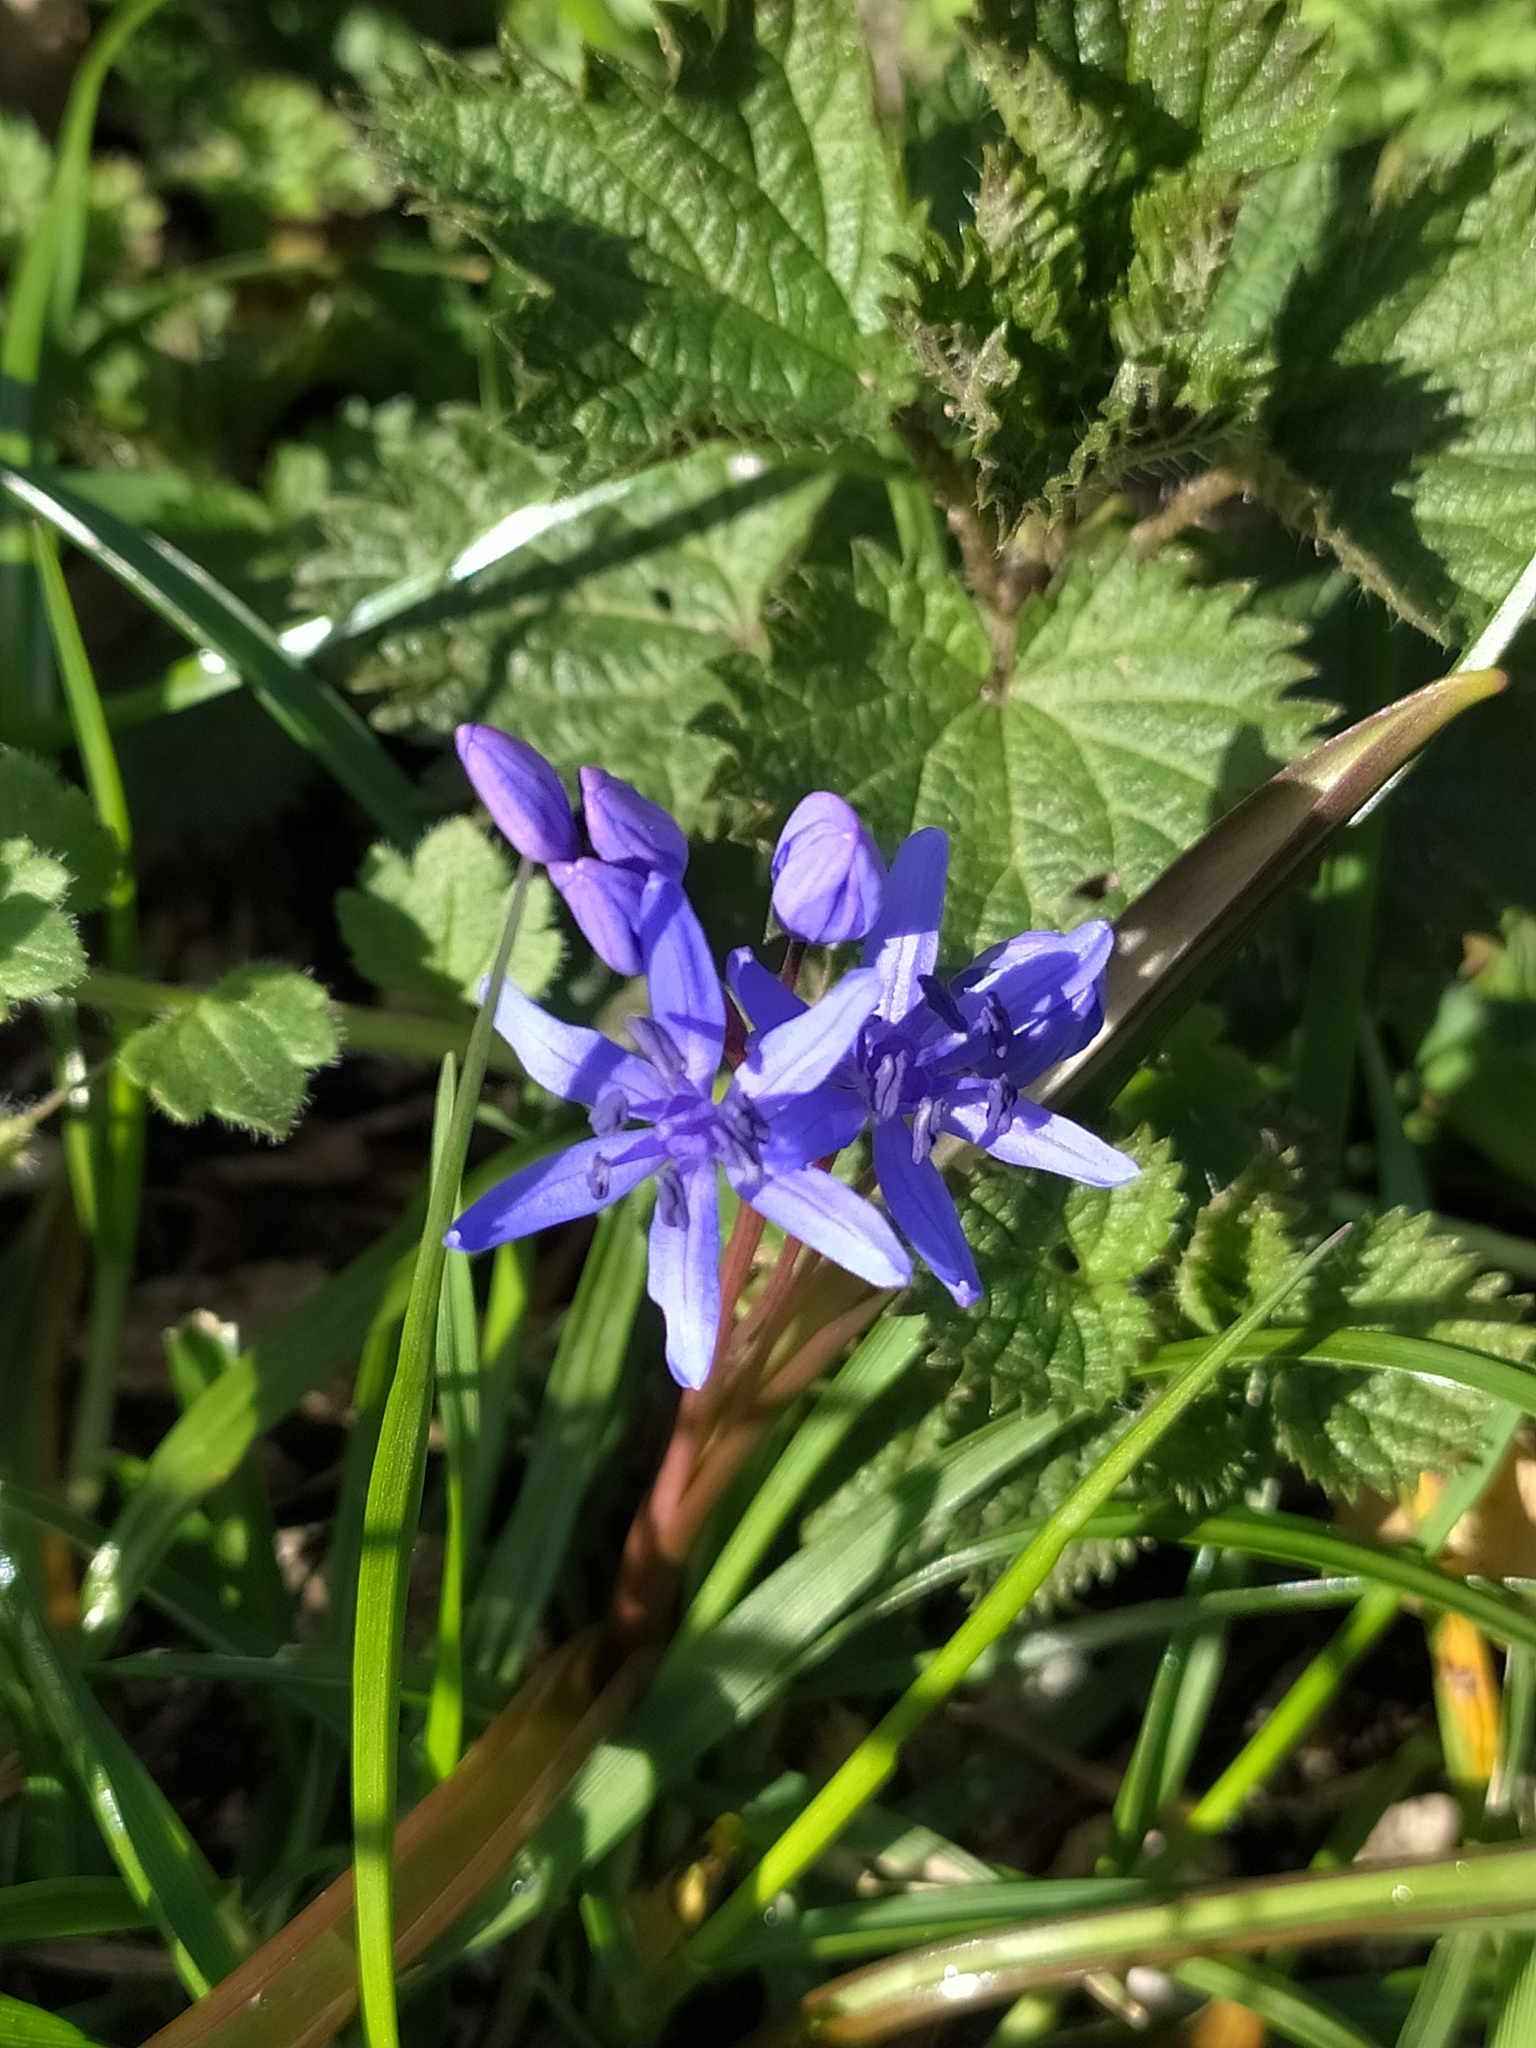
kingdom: Plantae
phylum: Tracheophyta
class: Liliopsida
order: Asparagales
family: Asparagaceae
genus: Scilla
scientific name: Scilla bifolia
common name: Alpine squill
